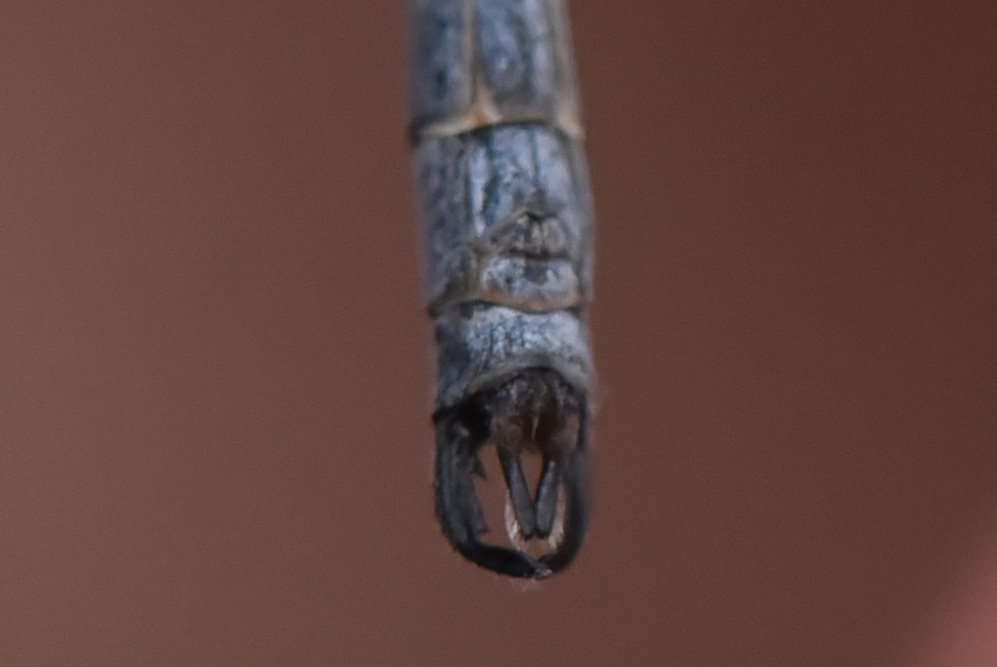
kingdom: Animalia
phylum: Arthropoda
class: Insecta
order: Odonata
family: Lestidae
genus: Lestes
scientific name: Lestes disjunctus
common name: Northern spreadwing
